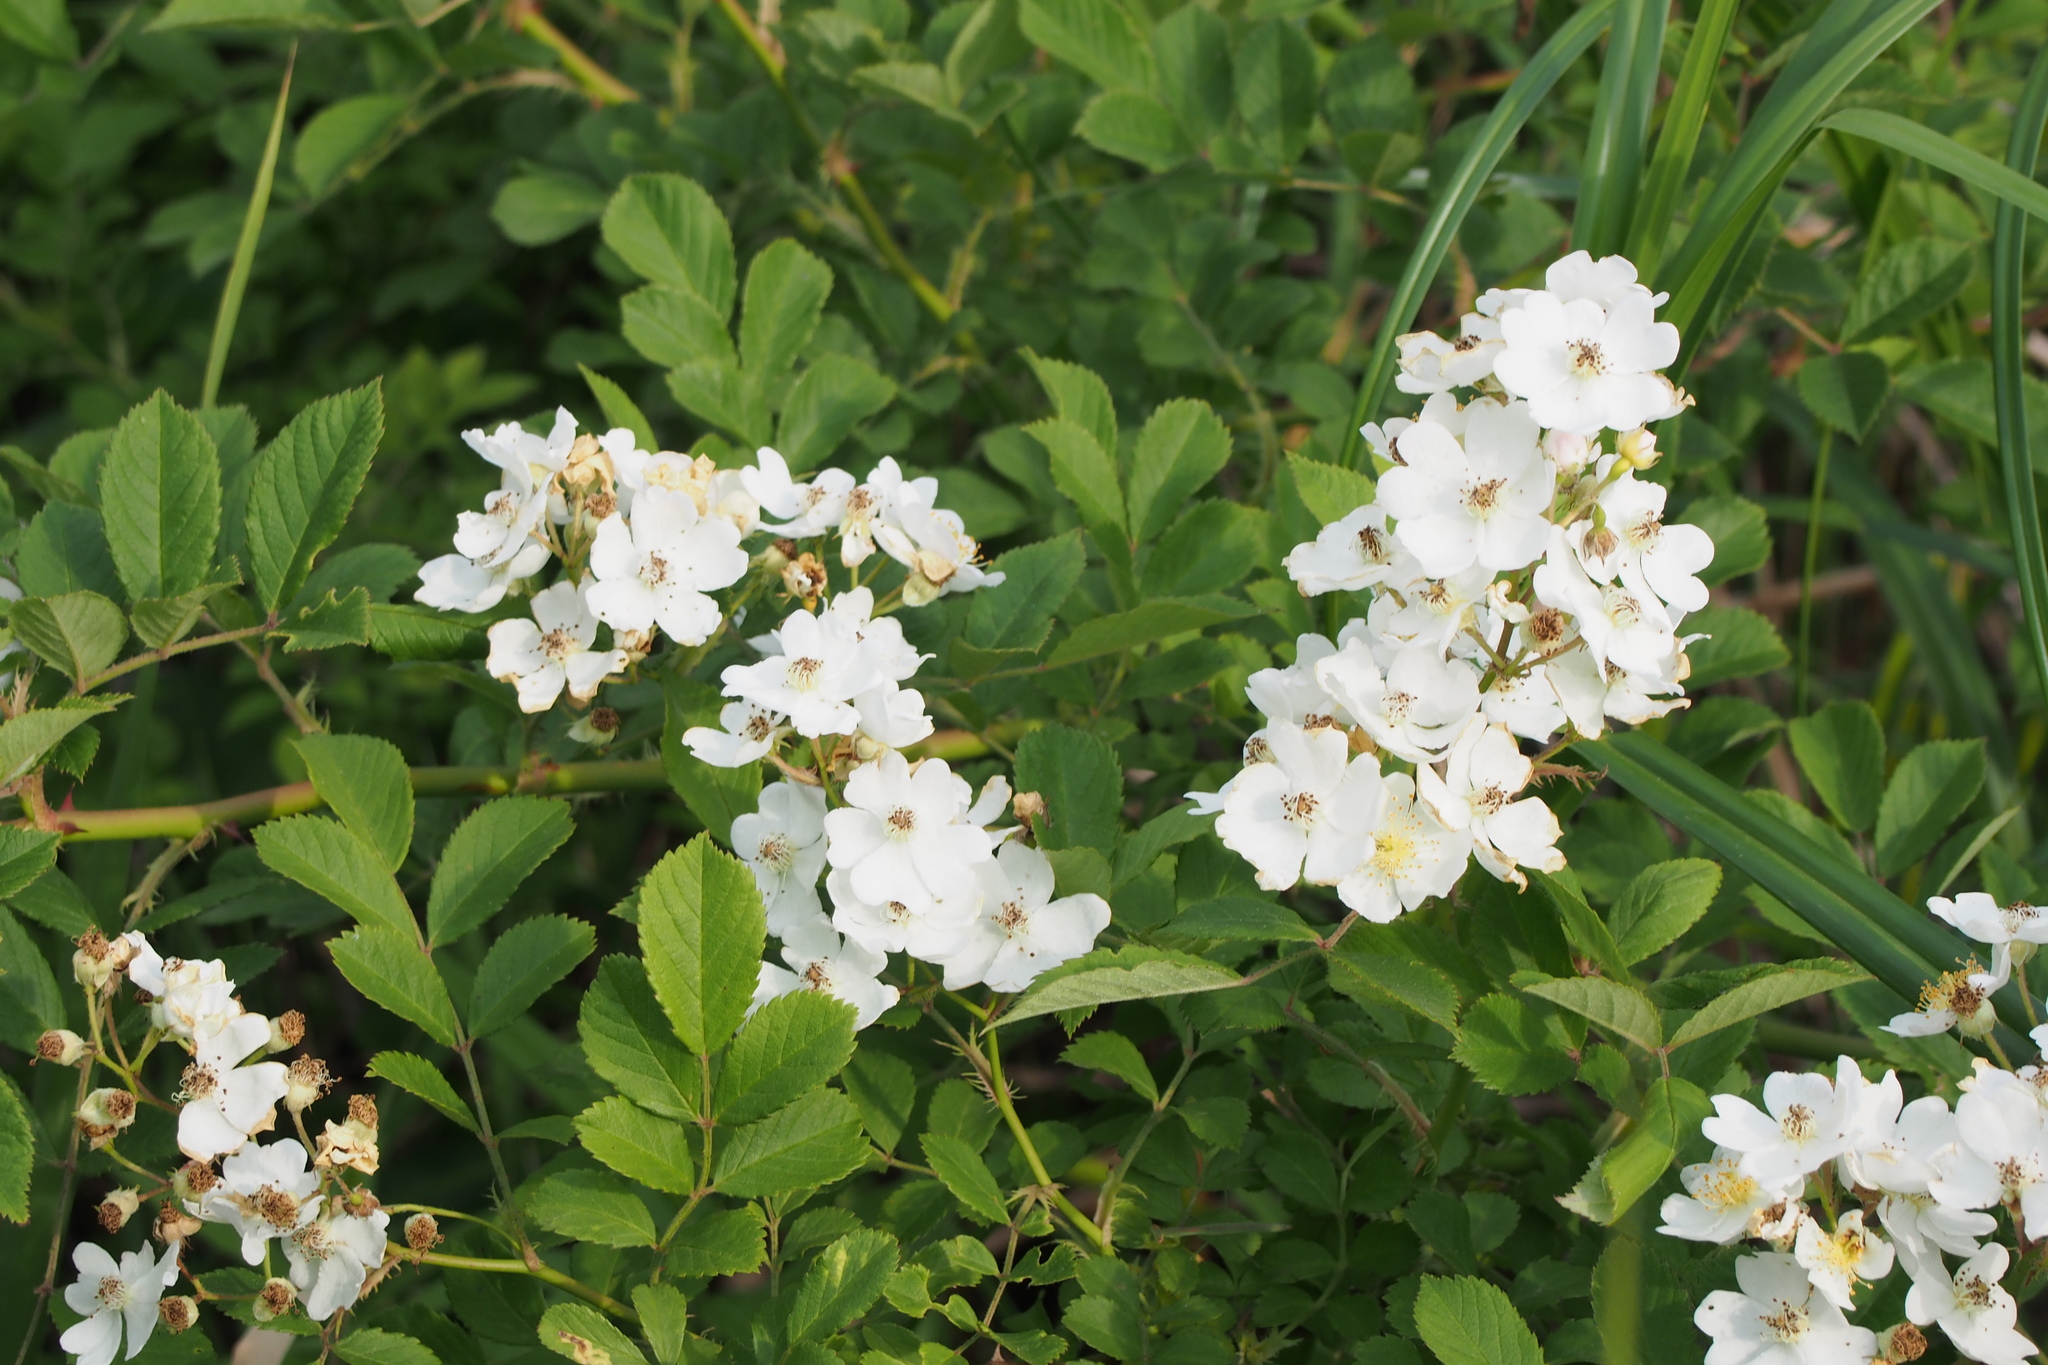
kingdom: Plantae
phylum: Tracheophyta
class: Magnoliopsida
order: Rosales
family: Rosaceae
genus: Rosa
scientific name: Rosa multiflora
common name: Multiflora rose
